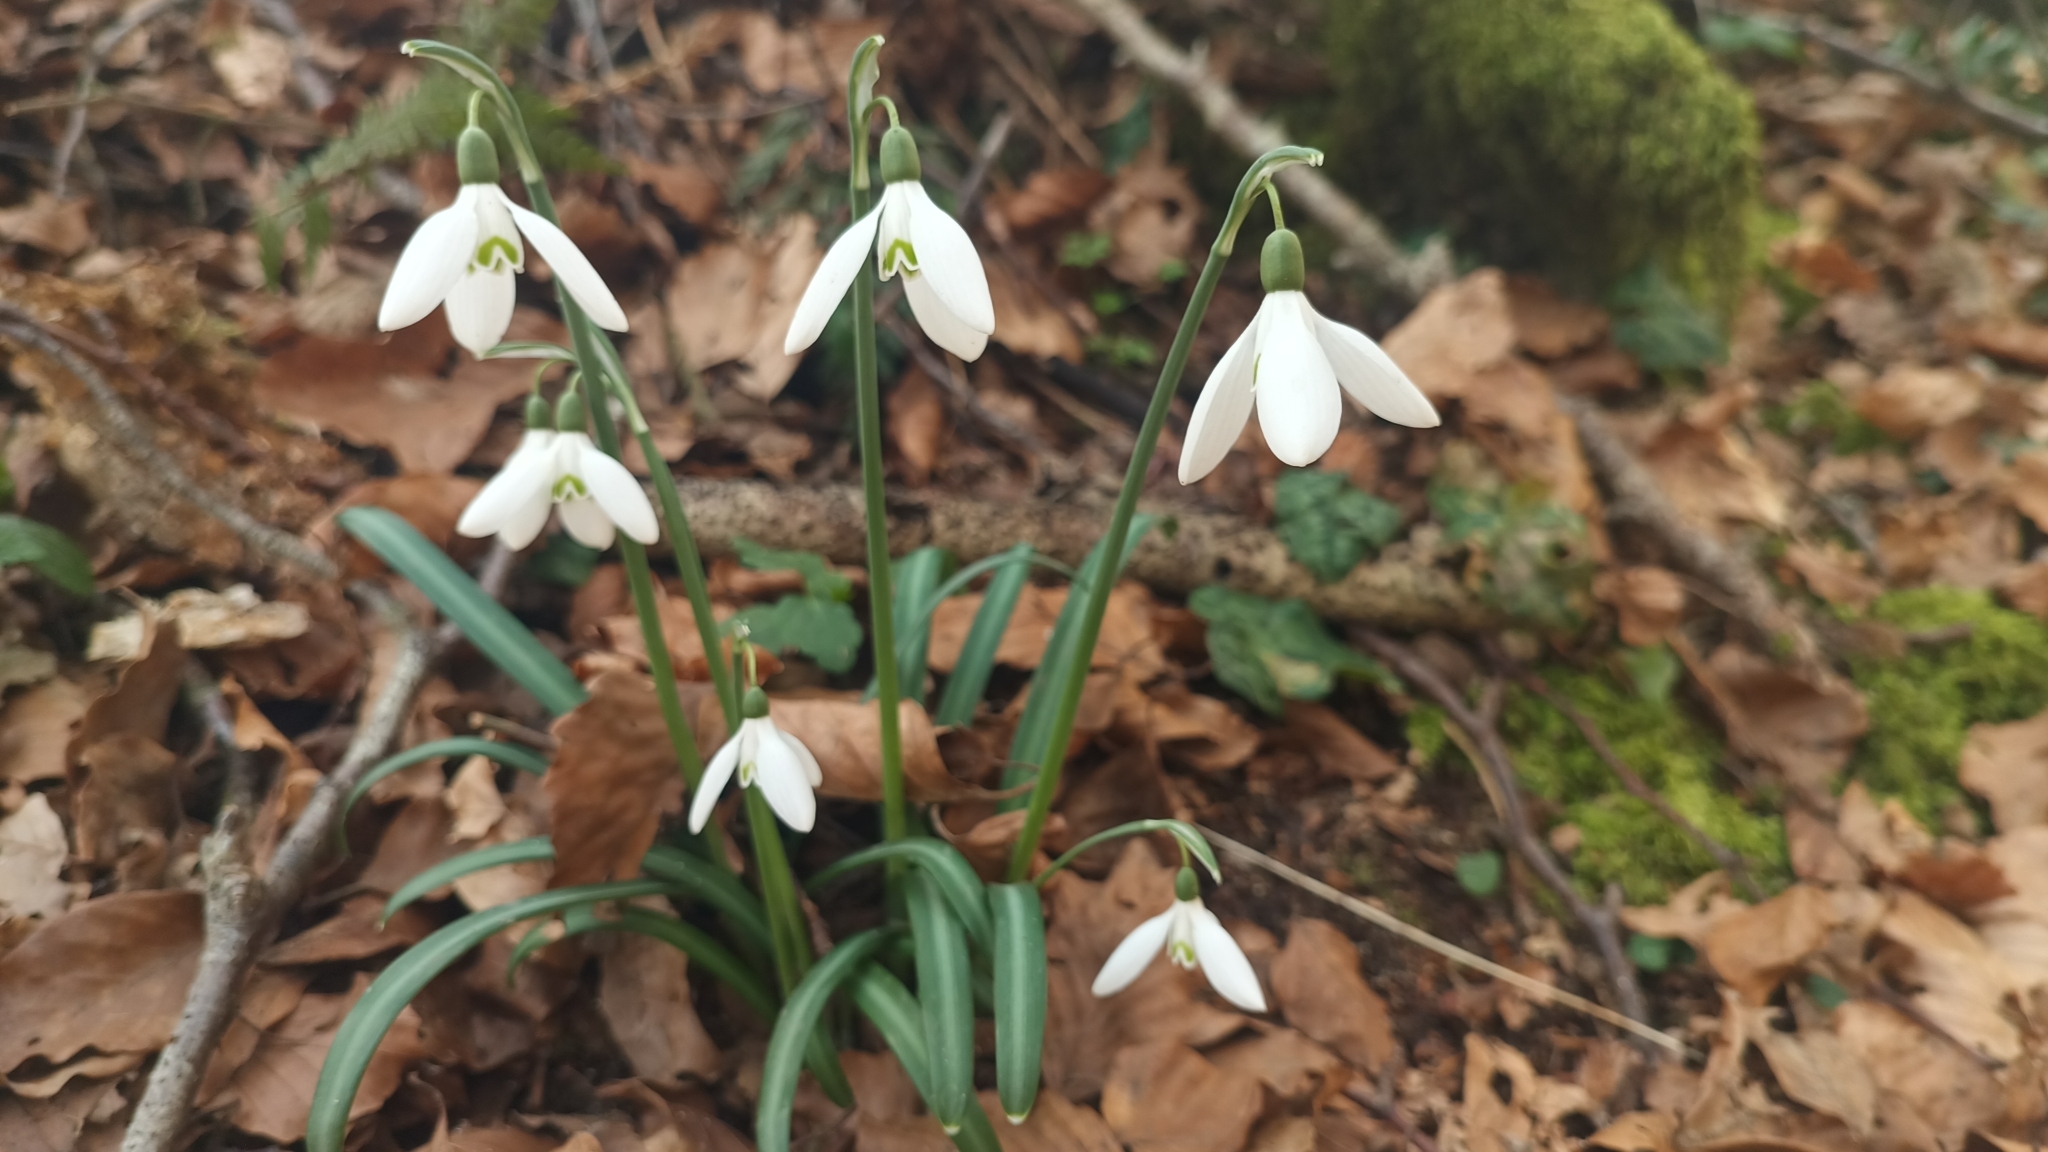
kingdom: Plantae
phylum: Tracheophyta
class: Liliopsida
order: Asparagales
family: Amaryllidaceae
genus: Galanthus
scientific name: Galanthus reginae-olgae
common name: Queen olga's snowdrop
